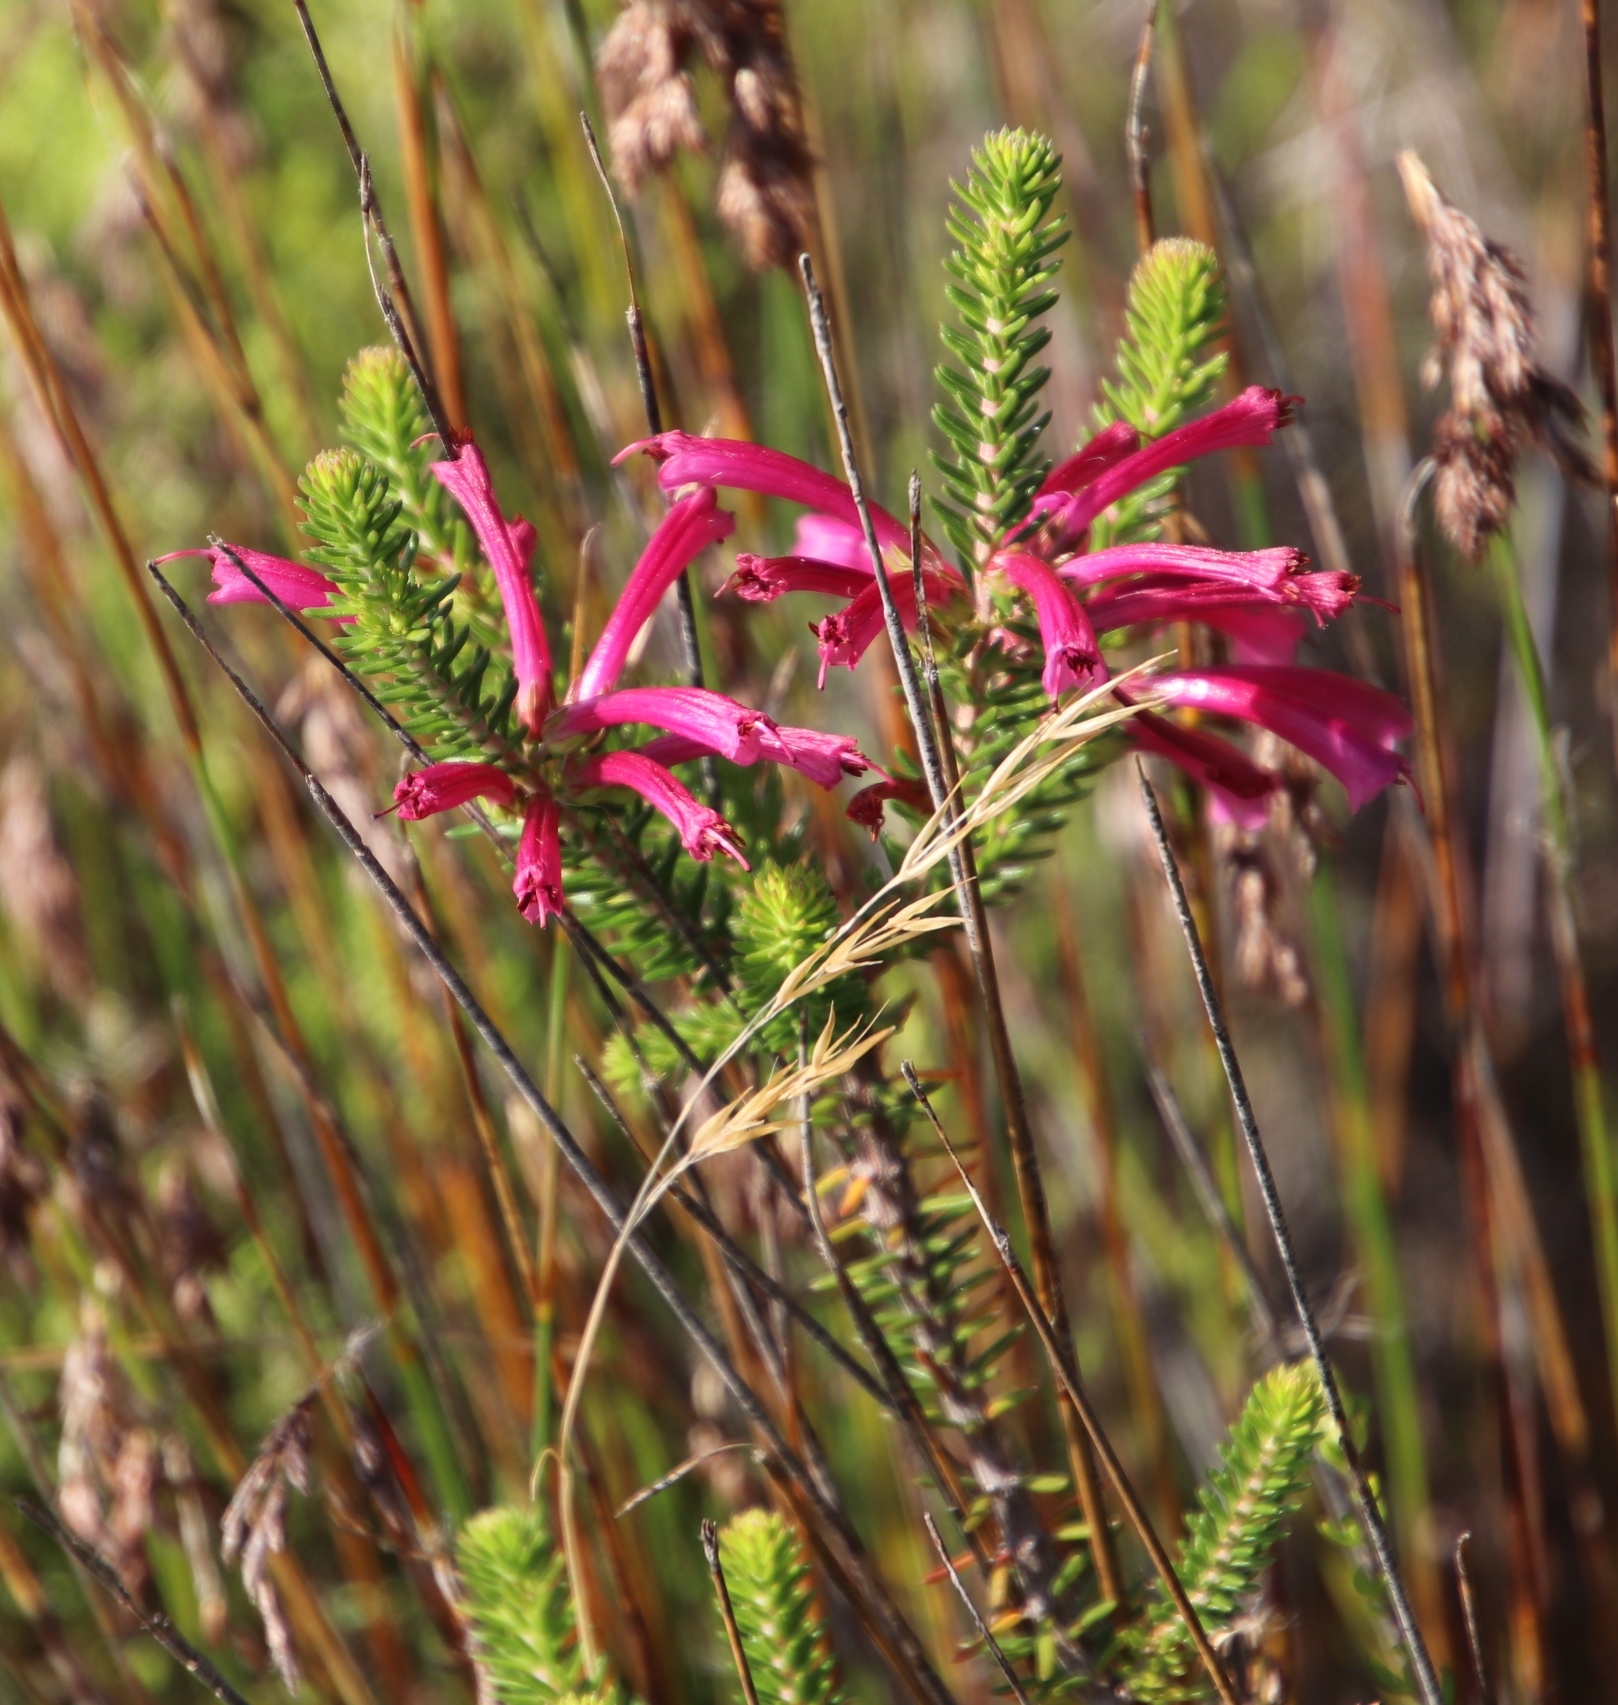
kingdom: Plantae
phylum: Tracheophyta
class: Magnoliopsida
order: Ericales
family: Ericaceae
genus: Erica
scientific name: Erica abietina
